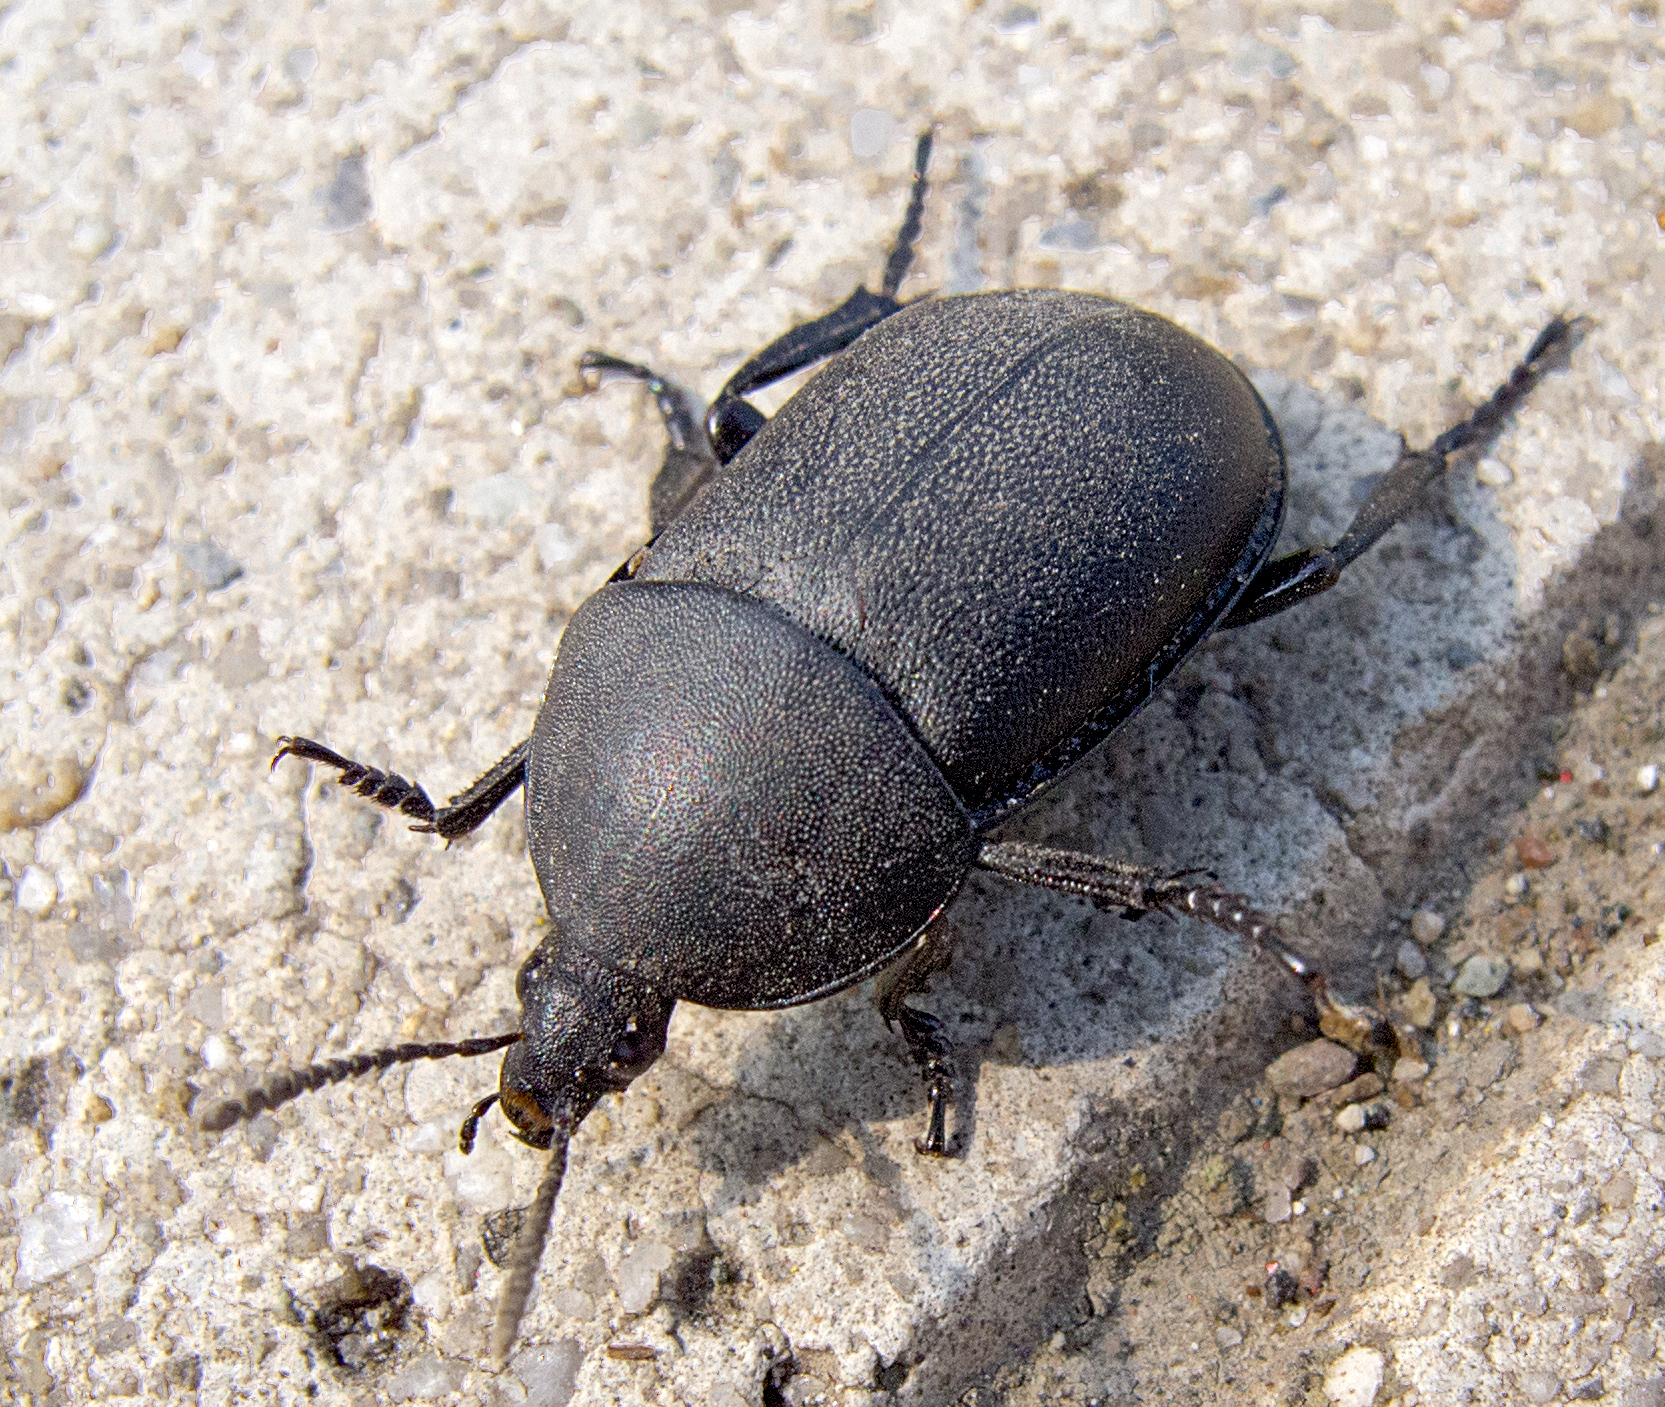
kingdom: Animalia
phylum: Arthropoda
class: Insecta
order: Coleoptera
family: Staphylinidae
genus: Silpha
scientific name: Silpha laevigata
